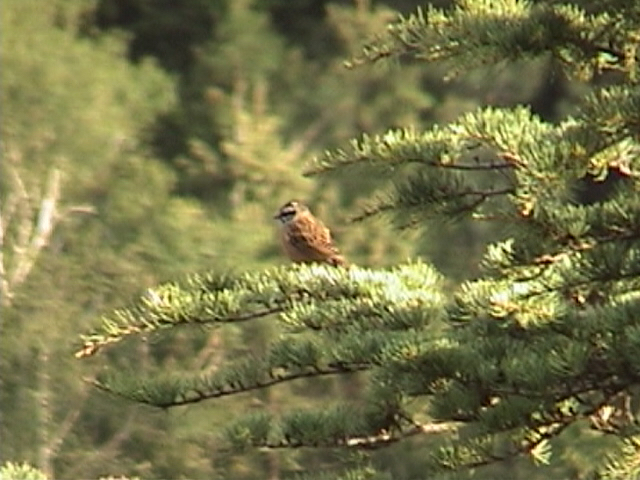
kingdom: Animalia
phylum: Chordata
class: Aves
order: Passeriformes
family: Emberizidae
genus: Emberiza
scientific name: Emberiza cia
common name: Rock bunting
